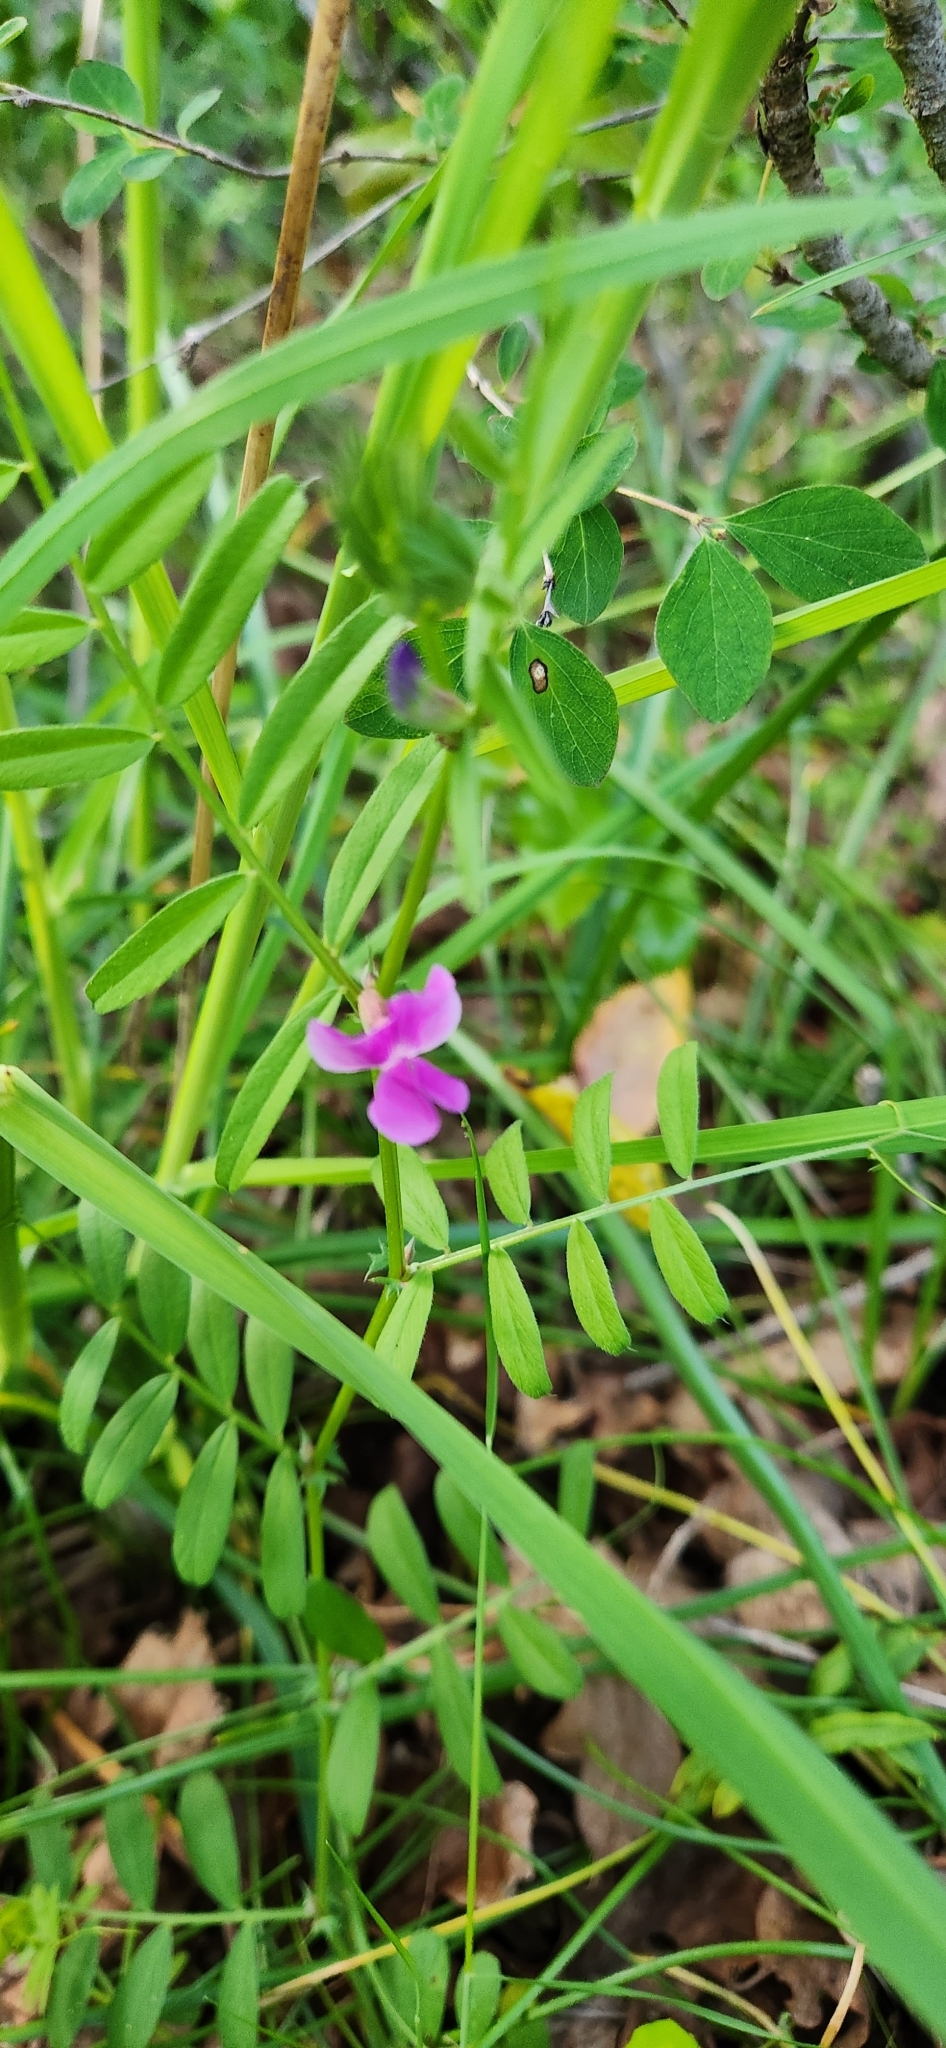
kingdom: Plantae
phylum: Tracheophyta
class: Magnoliopsida
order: Fabales
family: Fabaceae
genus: Vicia
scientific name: Vicia sativa
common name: Garden vetch
